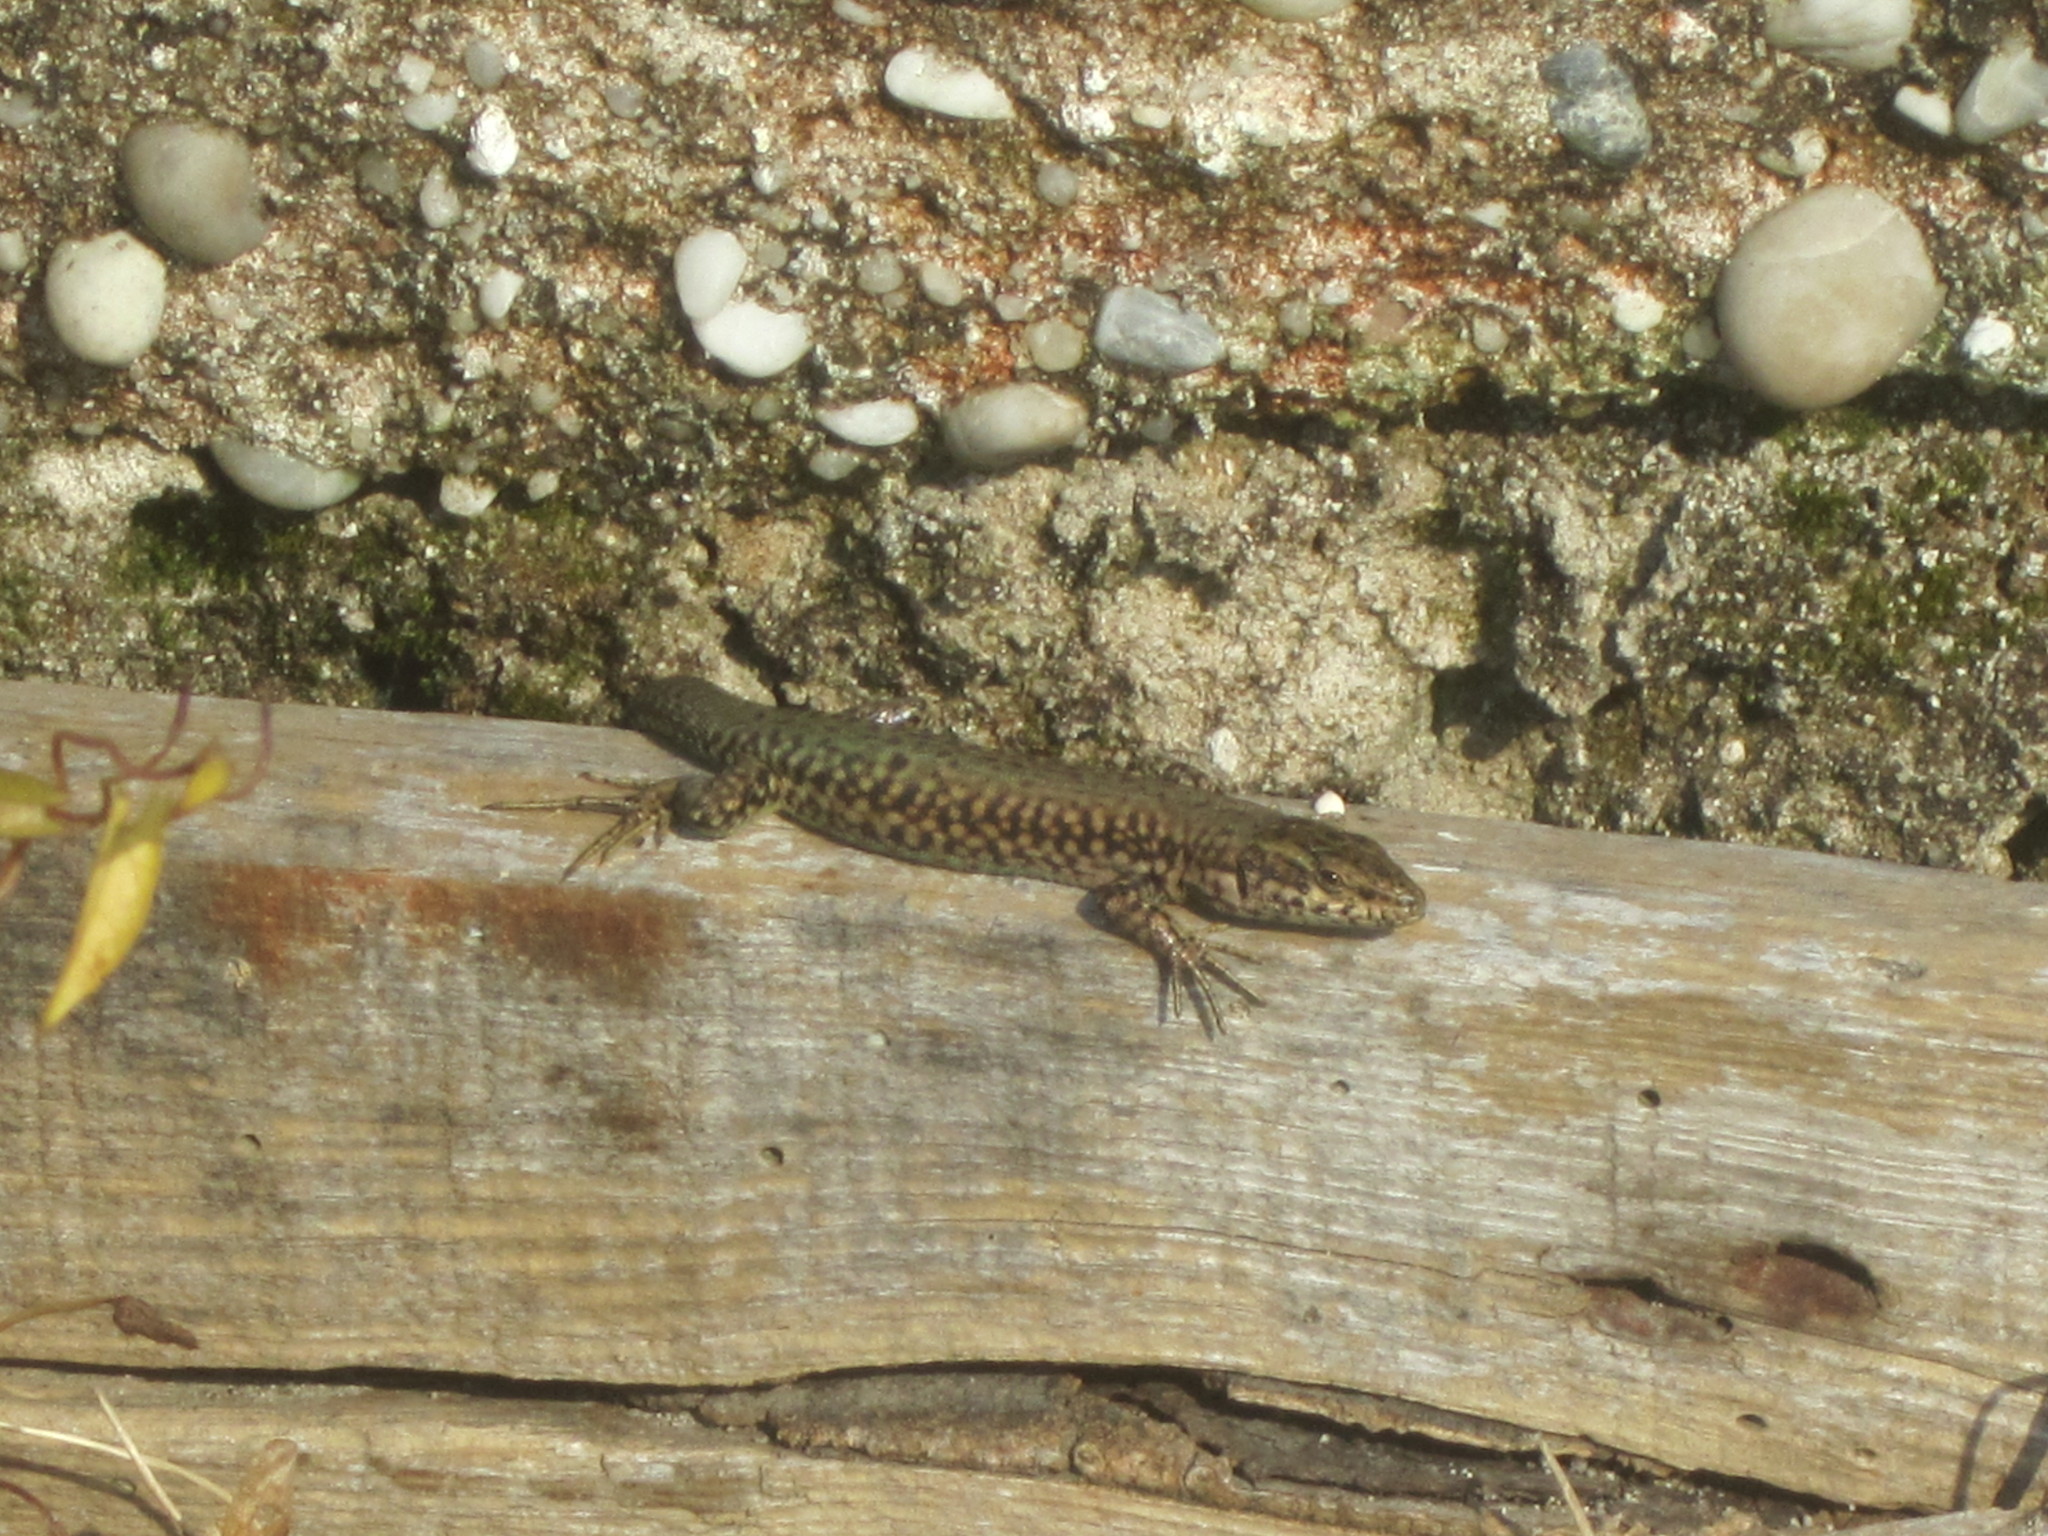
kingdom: Animalia
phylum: Chordata
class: Squamata
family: Lacertidae
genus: Podarcis
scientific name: Podarcis virescens
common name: Geniez’s wall lizard
